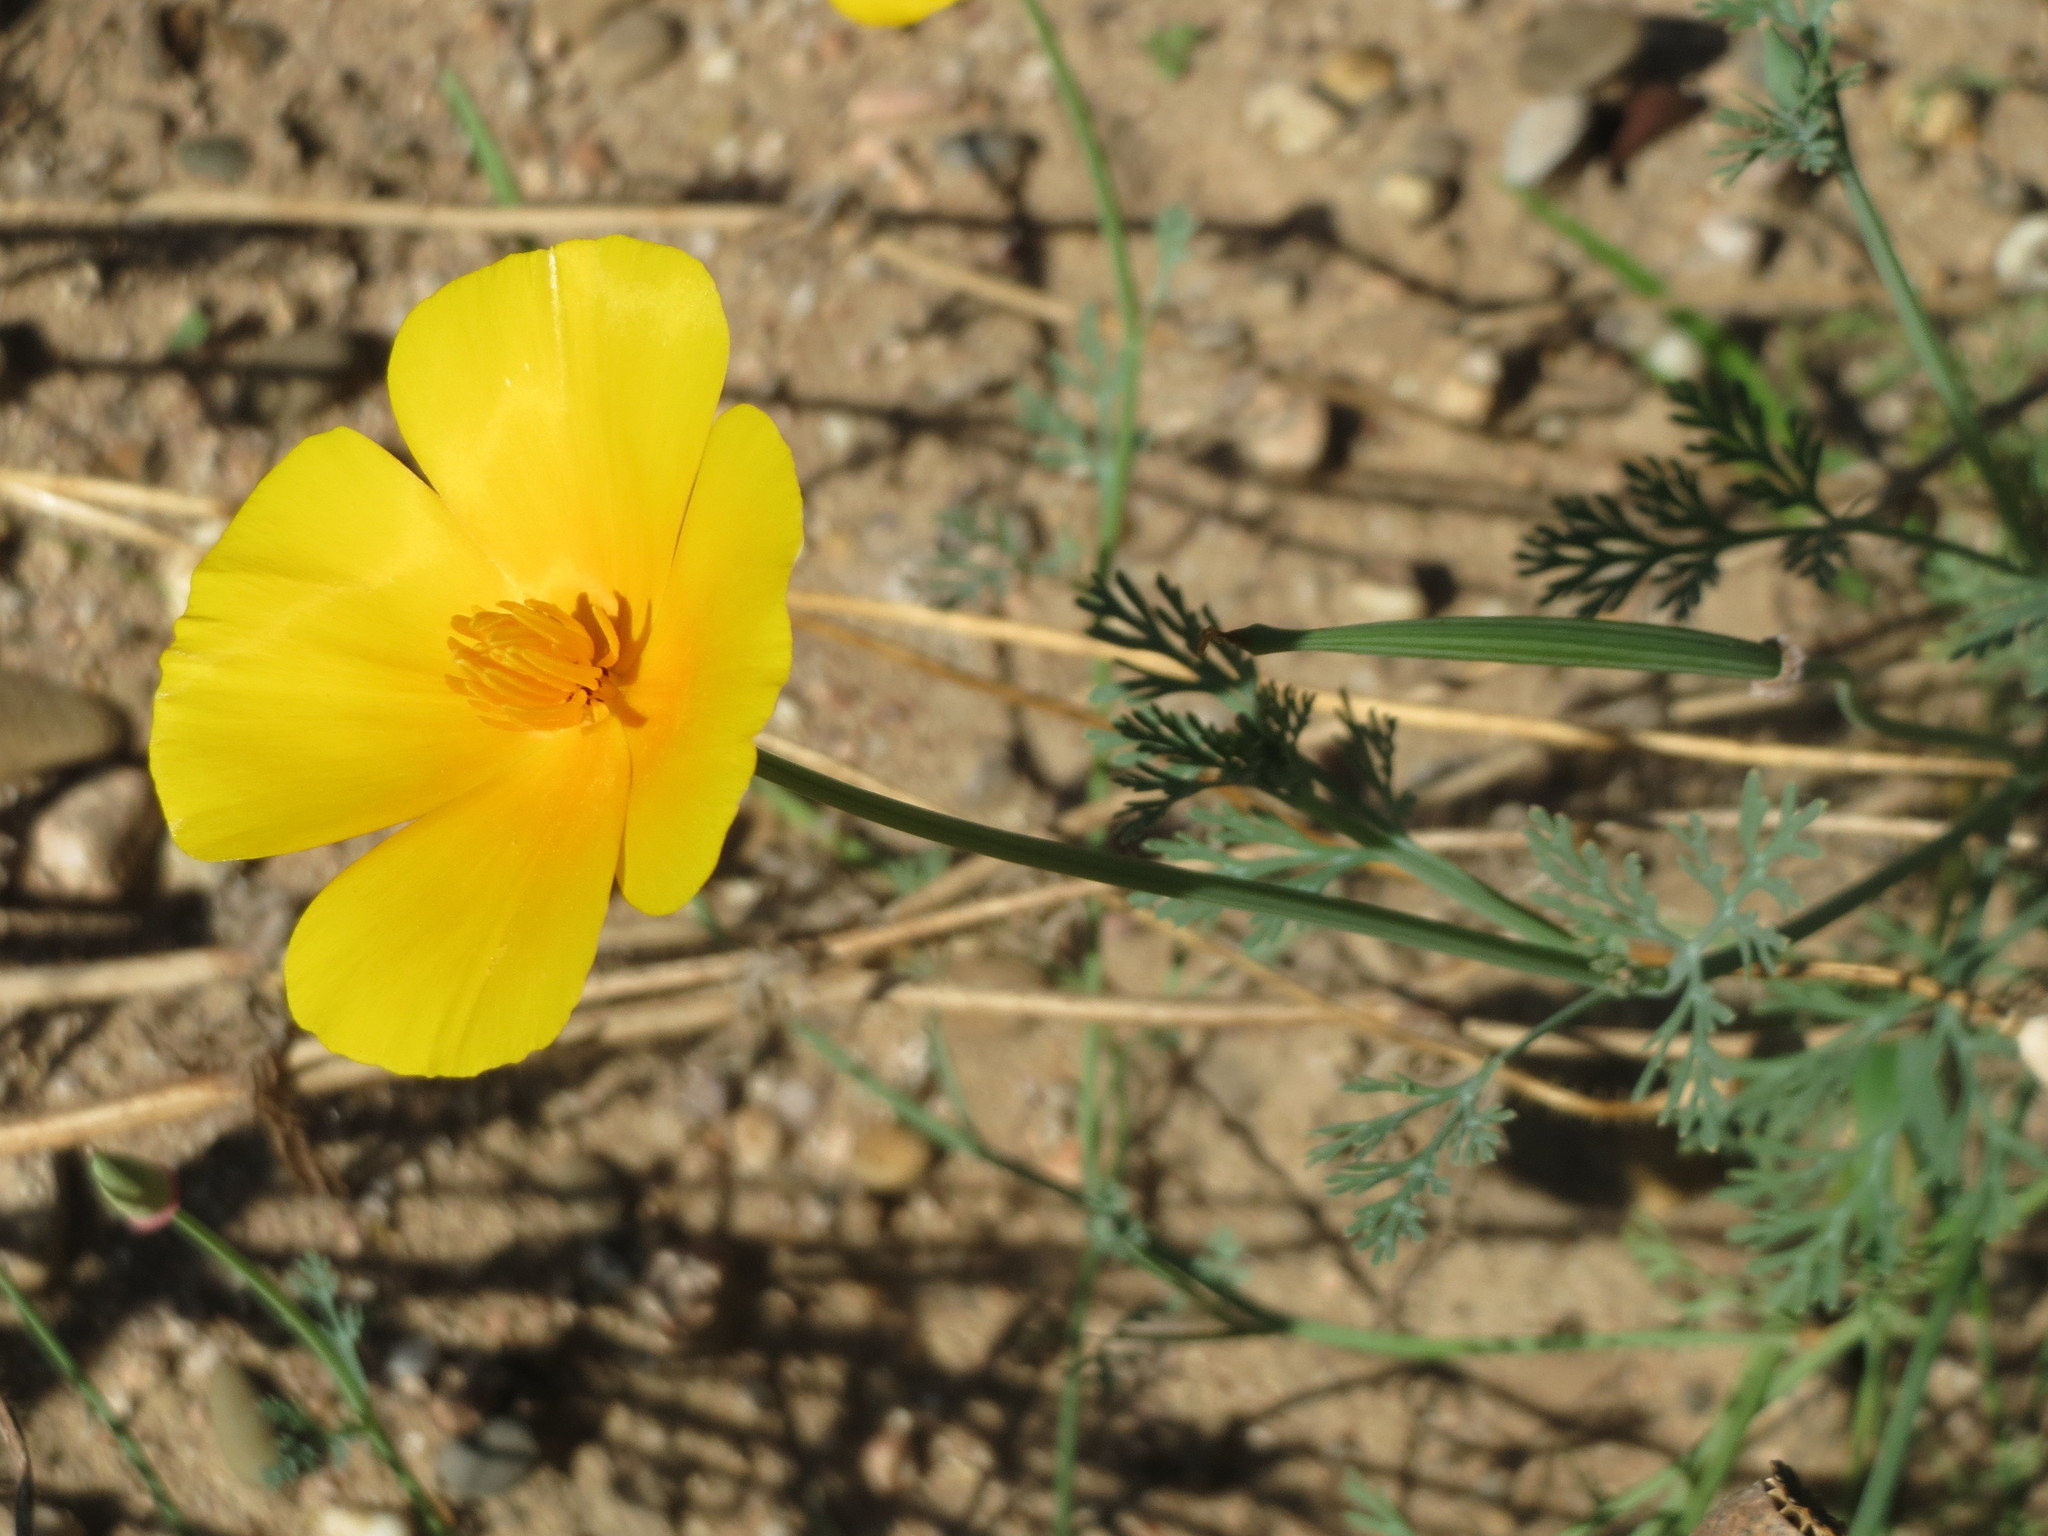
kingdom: Plantae
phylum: Tracheophyta
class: Magnoliopsida
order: Ranunculales
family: Papaveraceae
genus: Eschscholzia
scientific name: Eschscholzia californica
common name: California poppy
